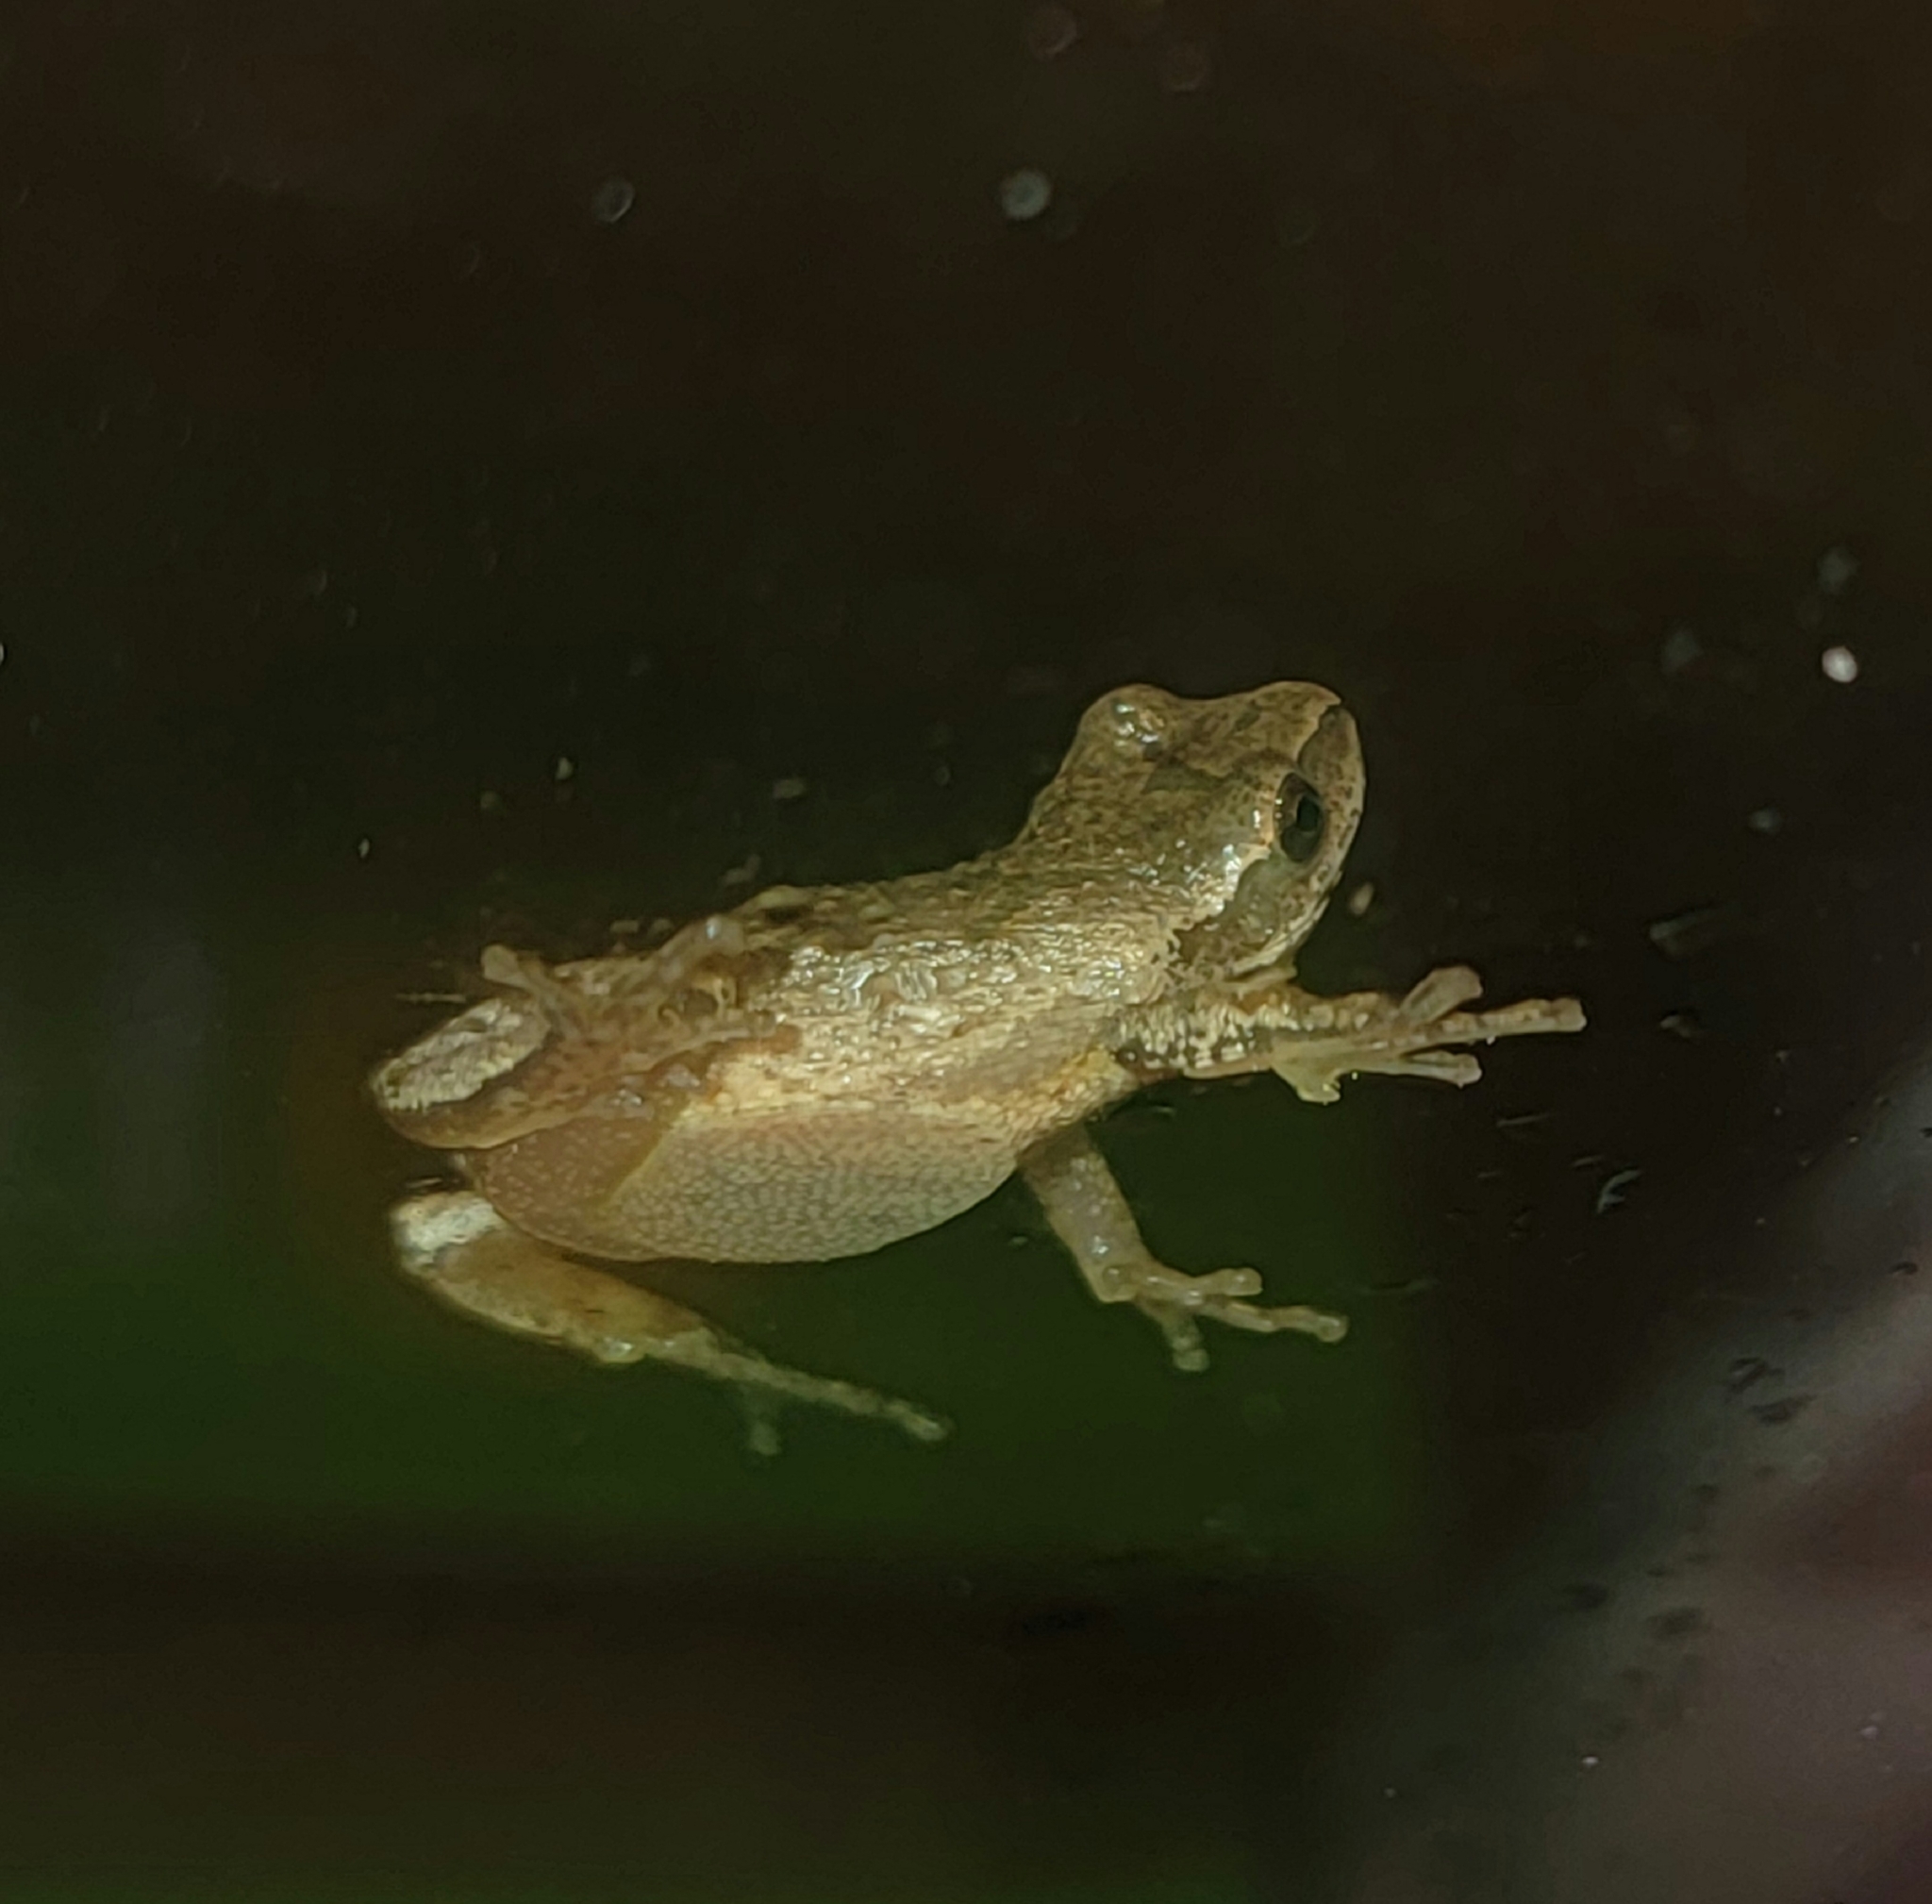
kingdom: Animalia
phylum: Chordata
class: Amphibia
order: Anura
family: Hylidae
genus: Pseudacris
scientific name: Pseudacris crucifer
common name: Spring peeper
